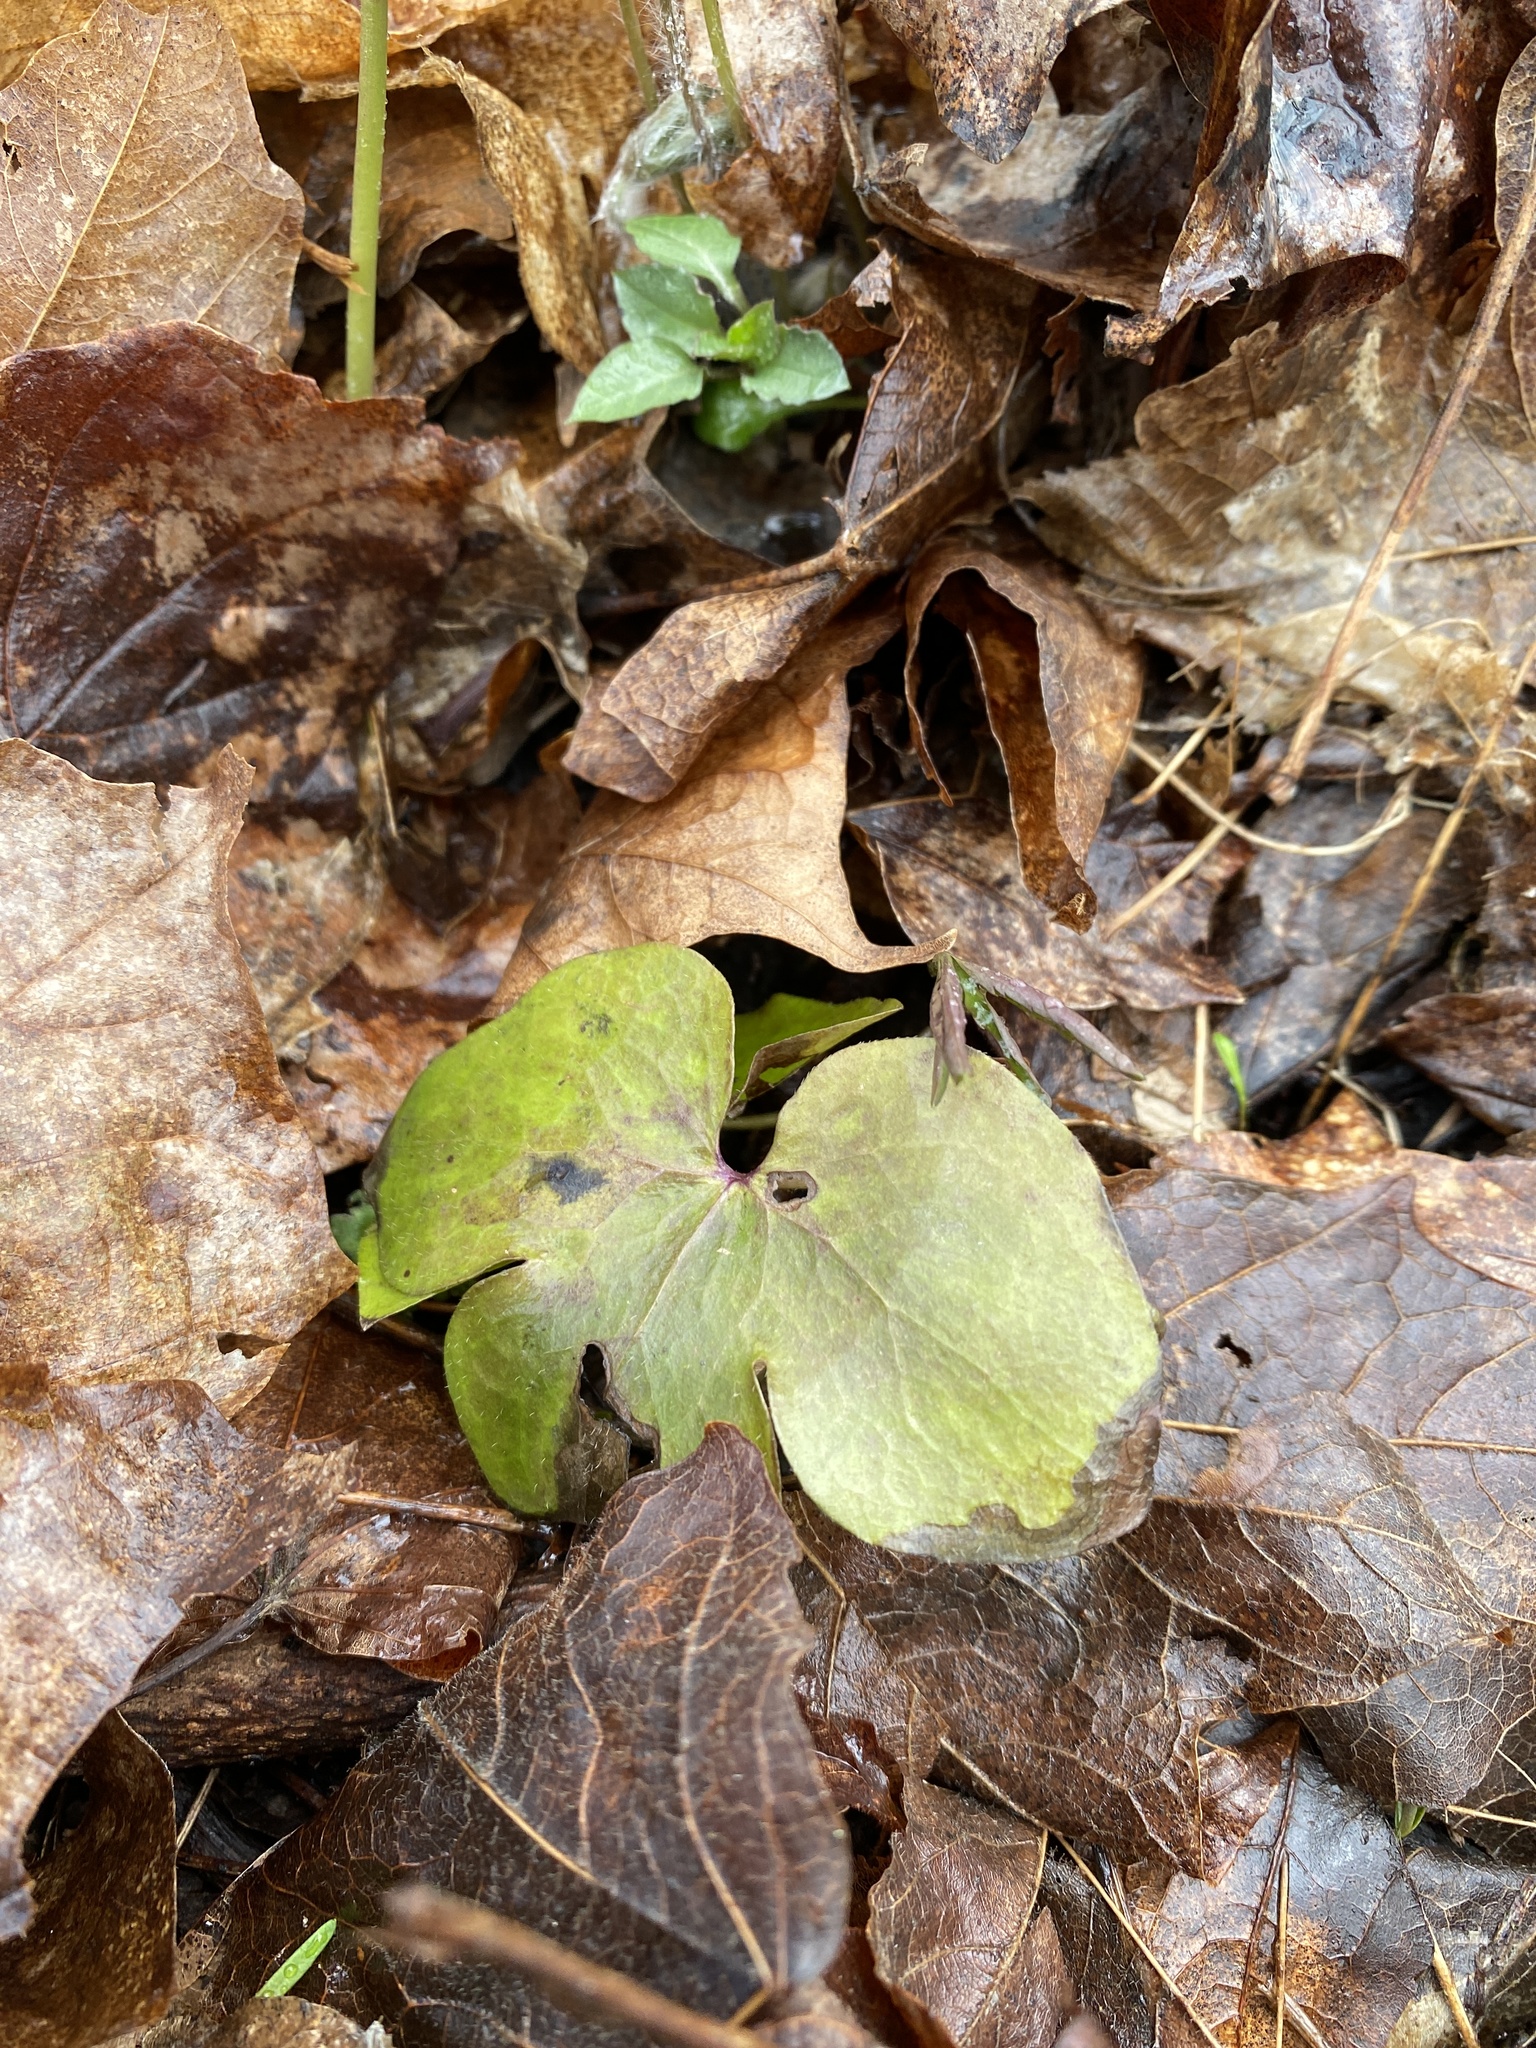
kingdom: Plantae
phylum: Tracheophyta
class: Magnoliopsida
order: Ranunculales
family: Ranunculaceae
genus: Hepatica
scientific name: Hepatica acutiloba
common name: Sharp-lobed hepatica
